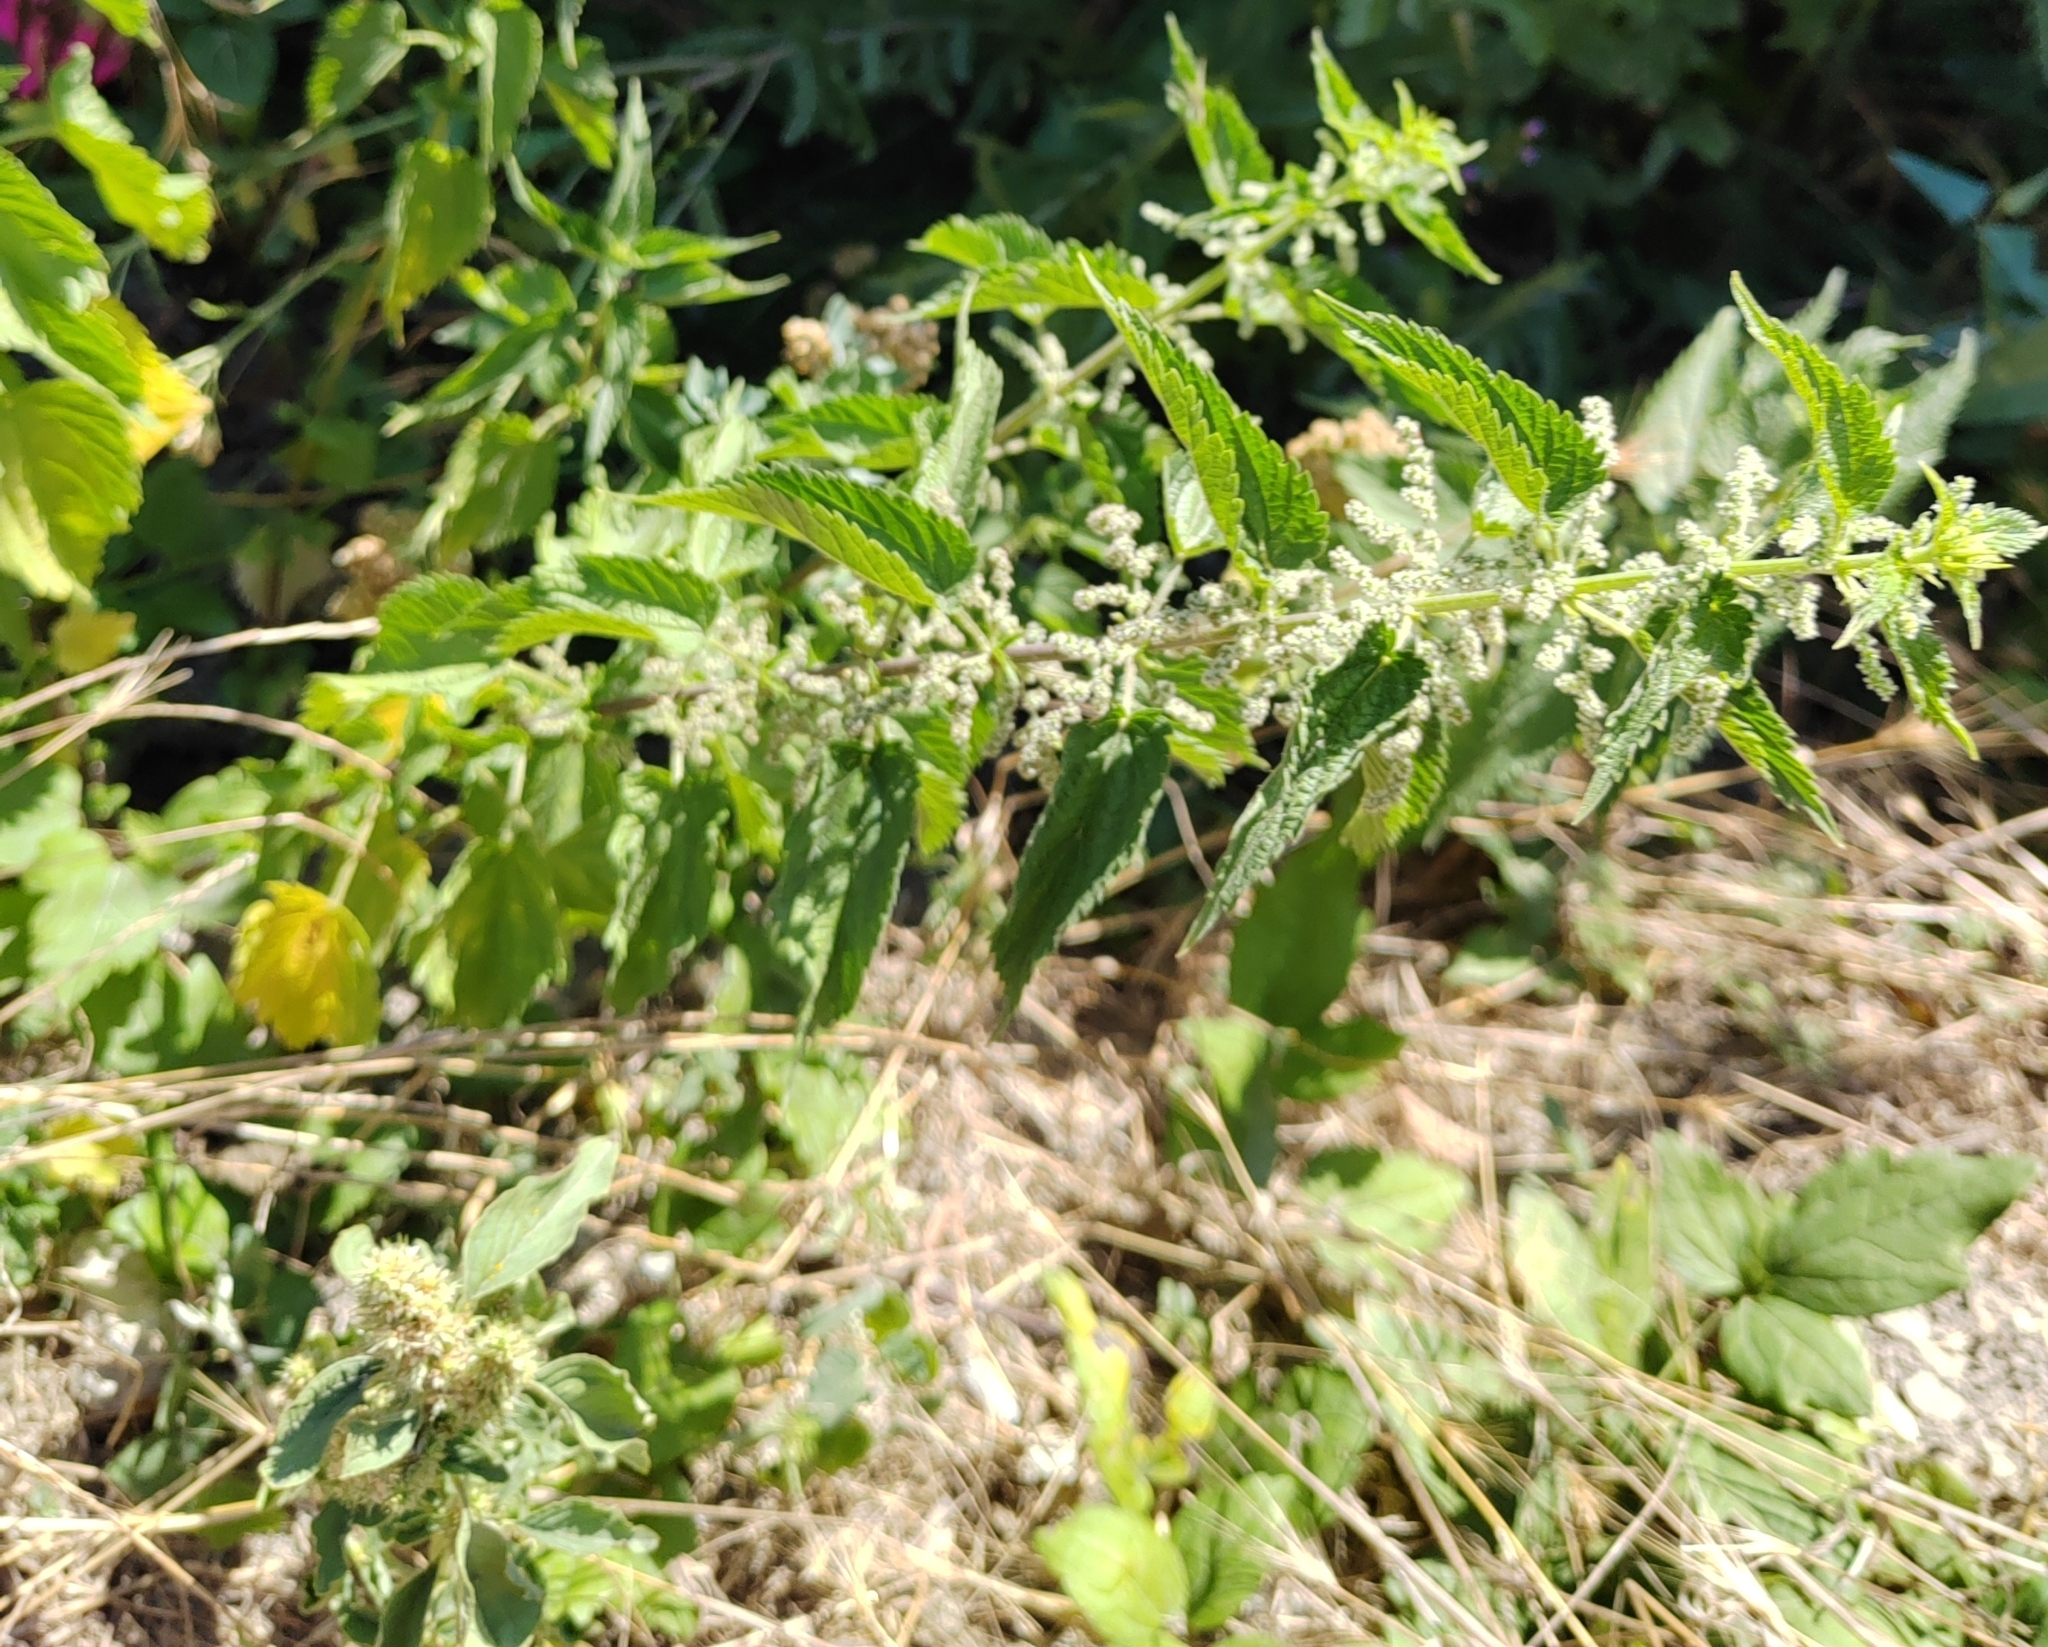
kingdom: Plantae
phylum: Tracheophyta
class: Magnoliopsida
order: Rosales
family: Urticaceae
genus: Urtica
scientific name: Urtica dioica
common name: Common nettle
